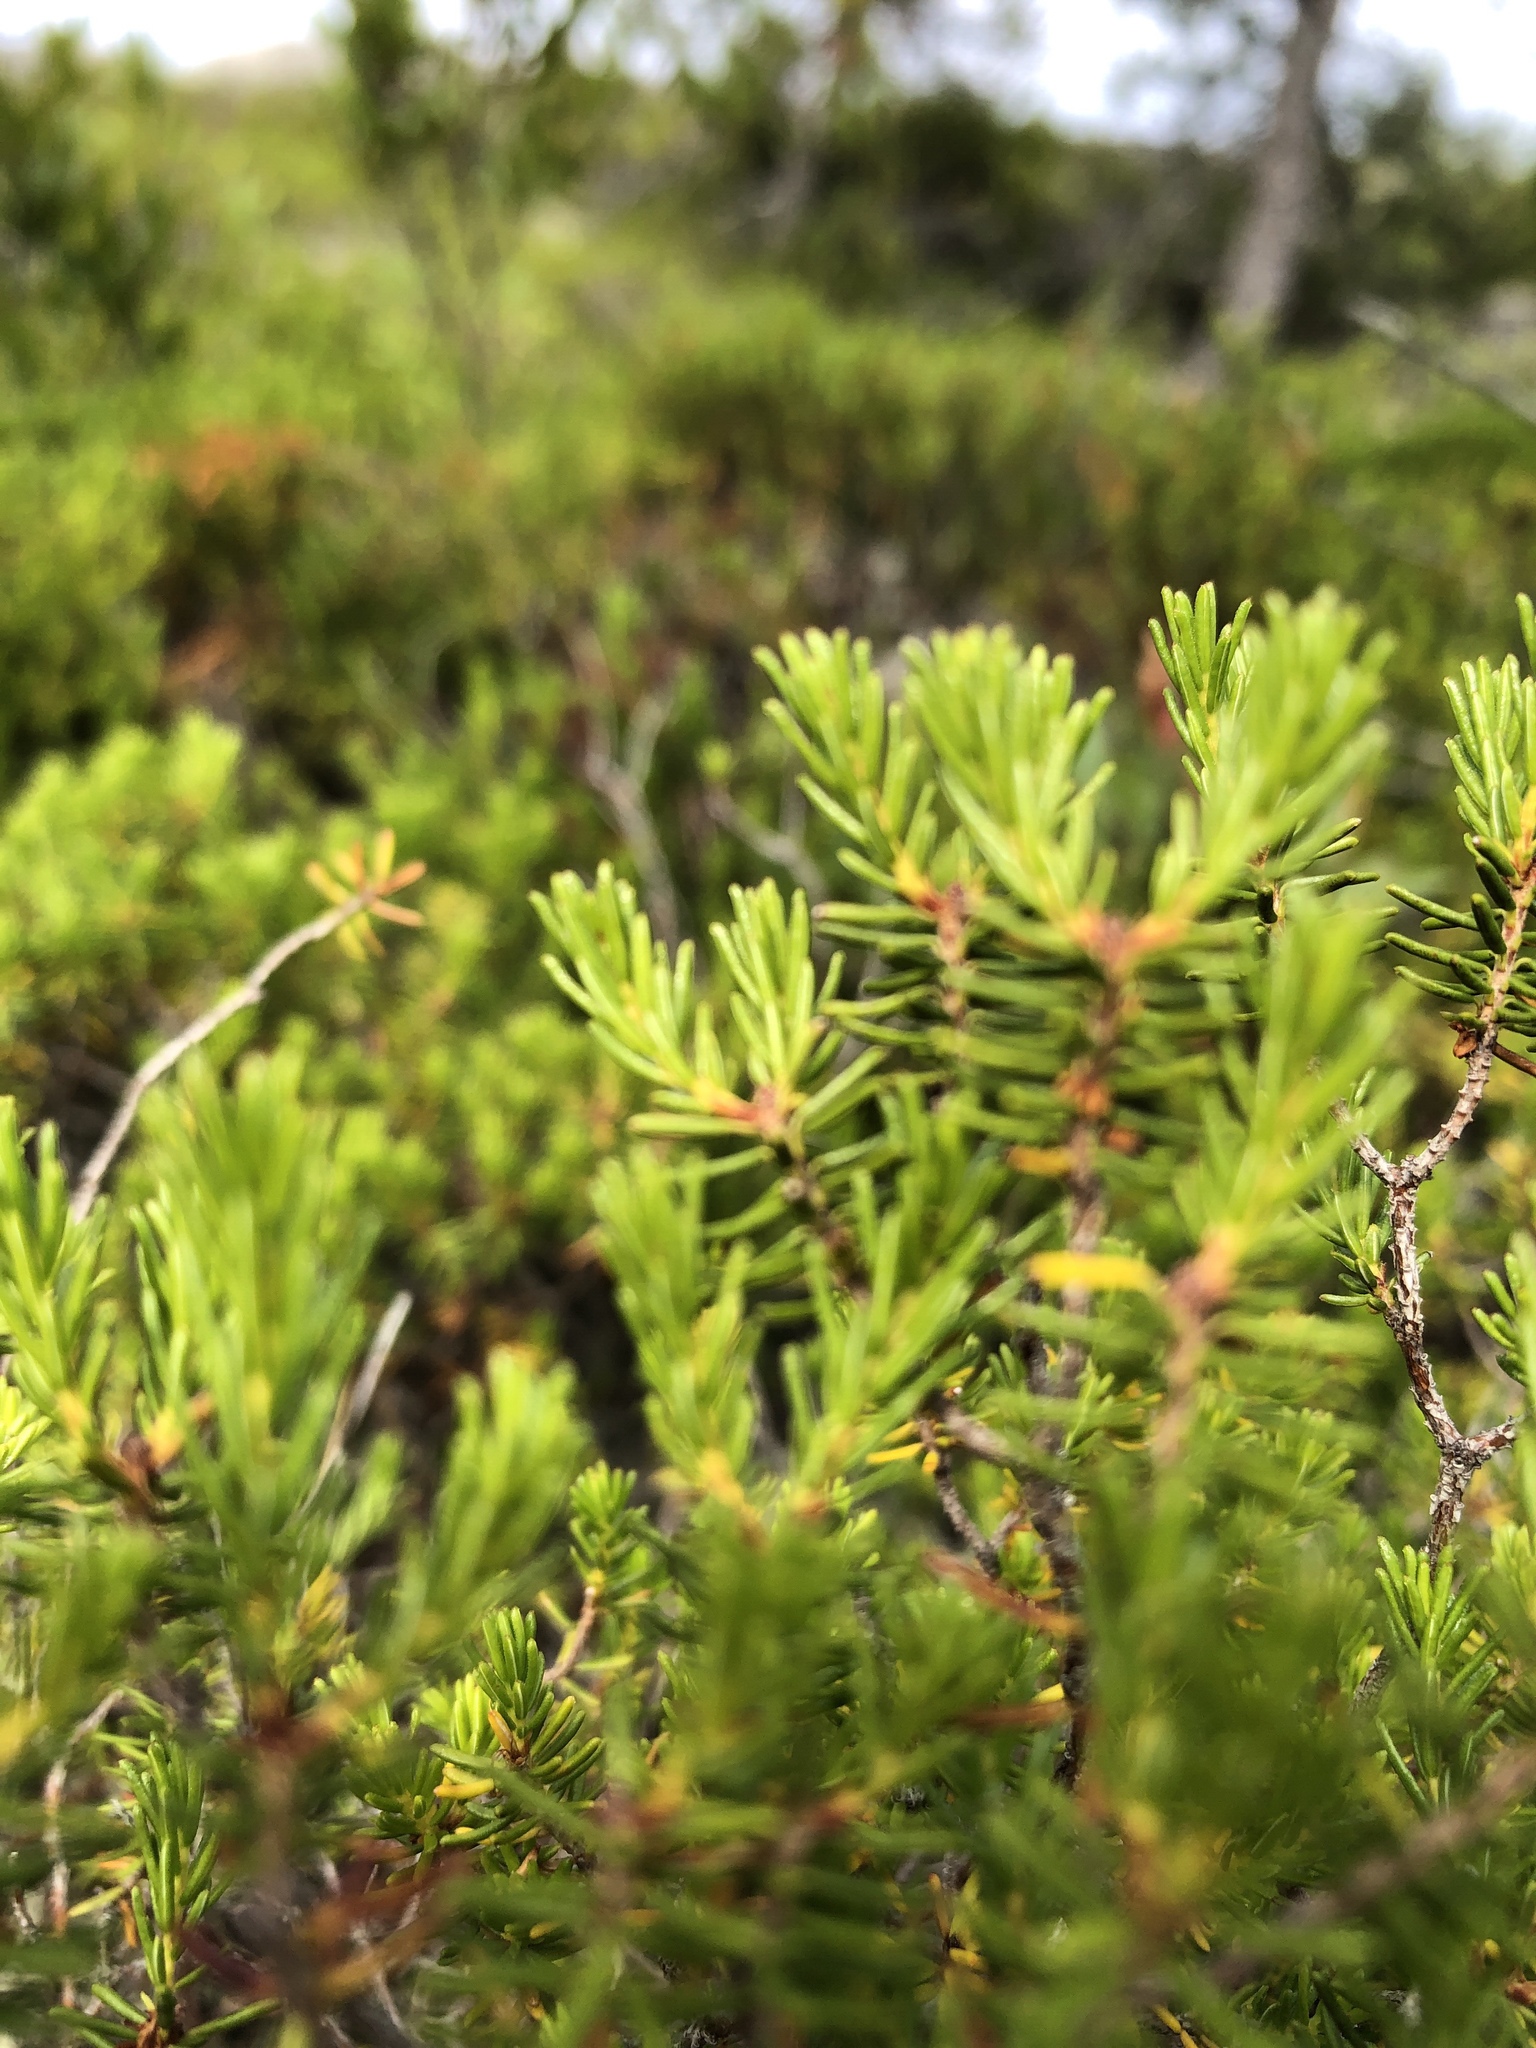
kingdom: Plantae
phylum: Tracheophyta
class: Magnoliopsida
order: Ericales
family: Ericaceae
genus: Corema
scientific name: Corema conradii
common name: Broom-crowberry
